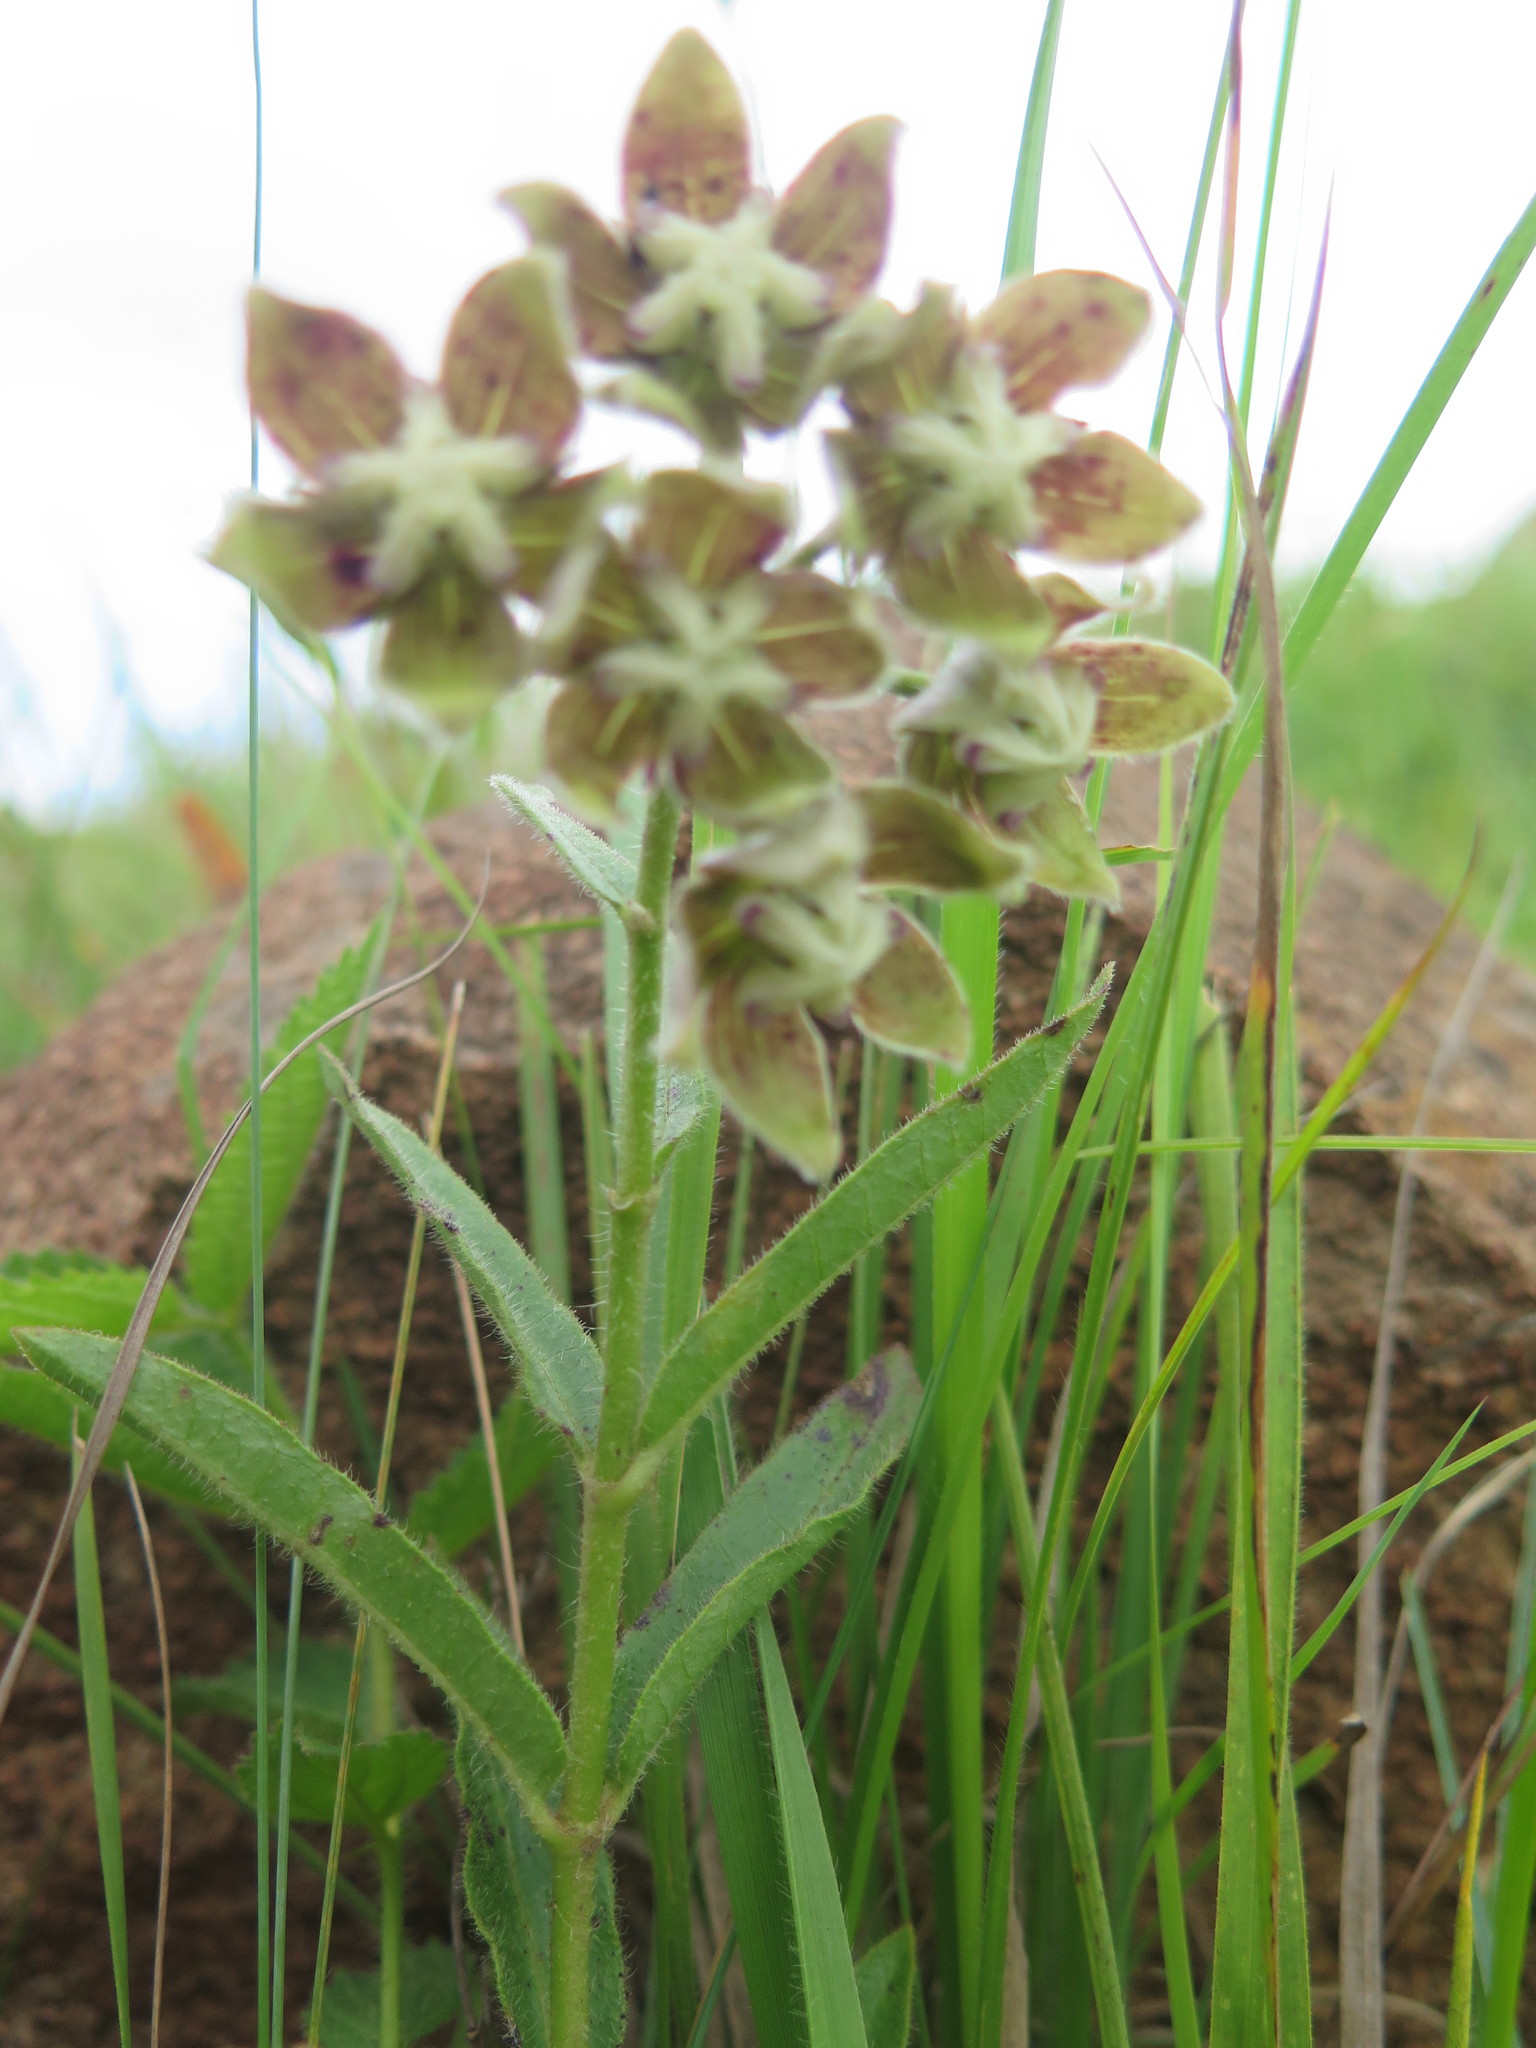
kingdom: Plantae
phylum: Tracheophyta
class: Magnoliopsida
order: Gentianales
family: Apocynaceae
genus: Asclepias
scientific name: Asclepias cultriformis
